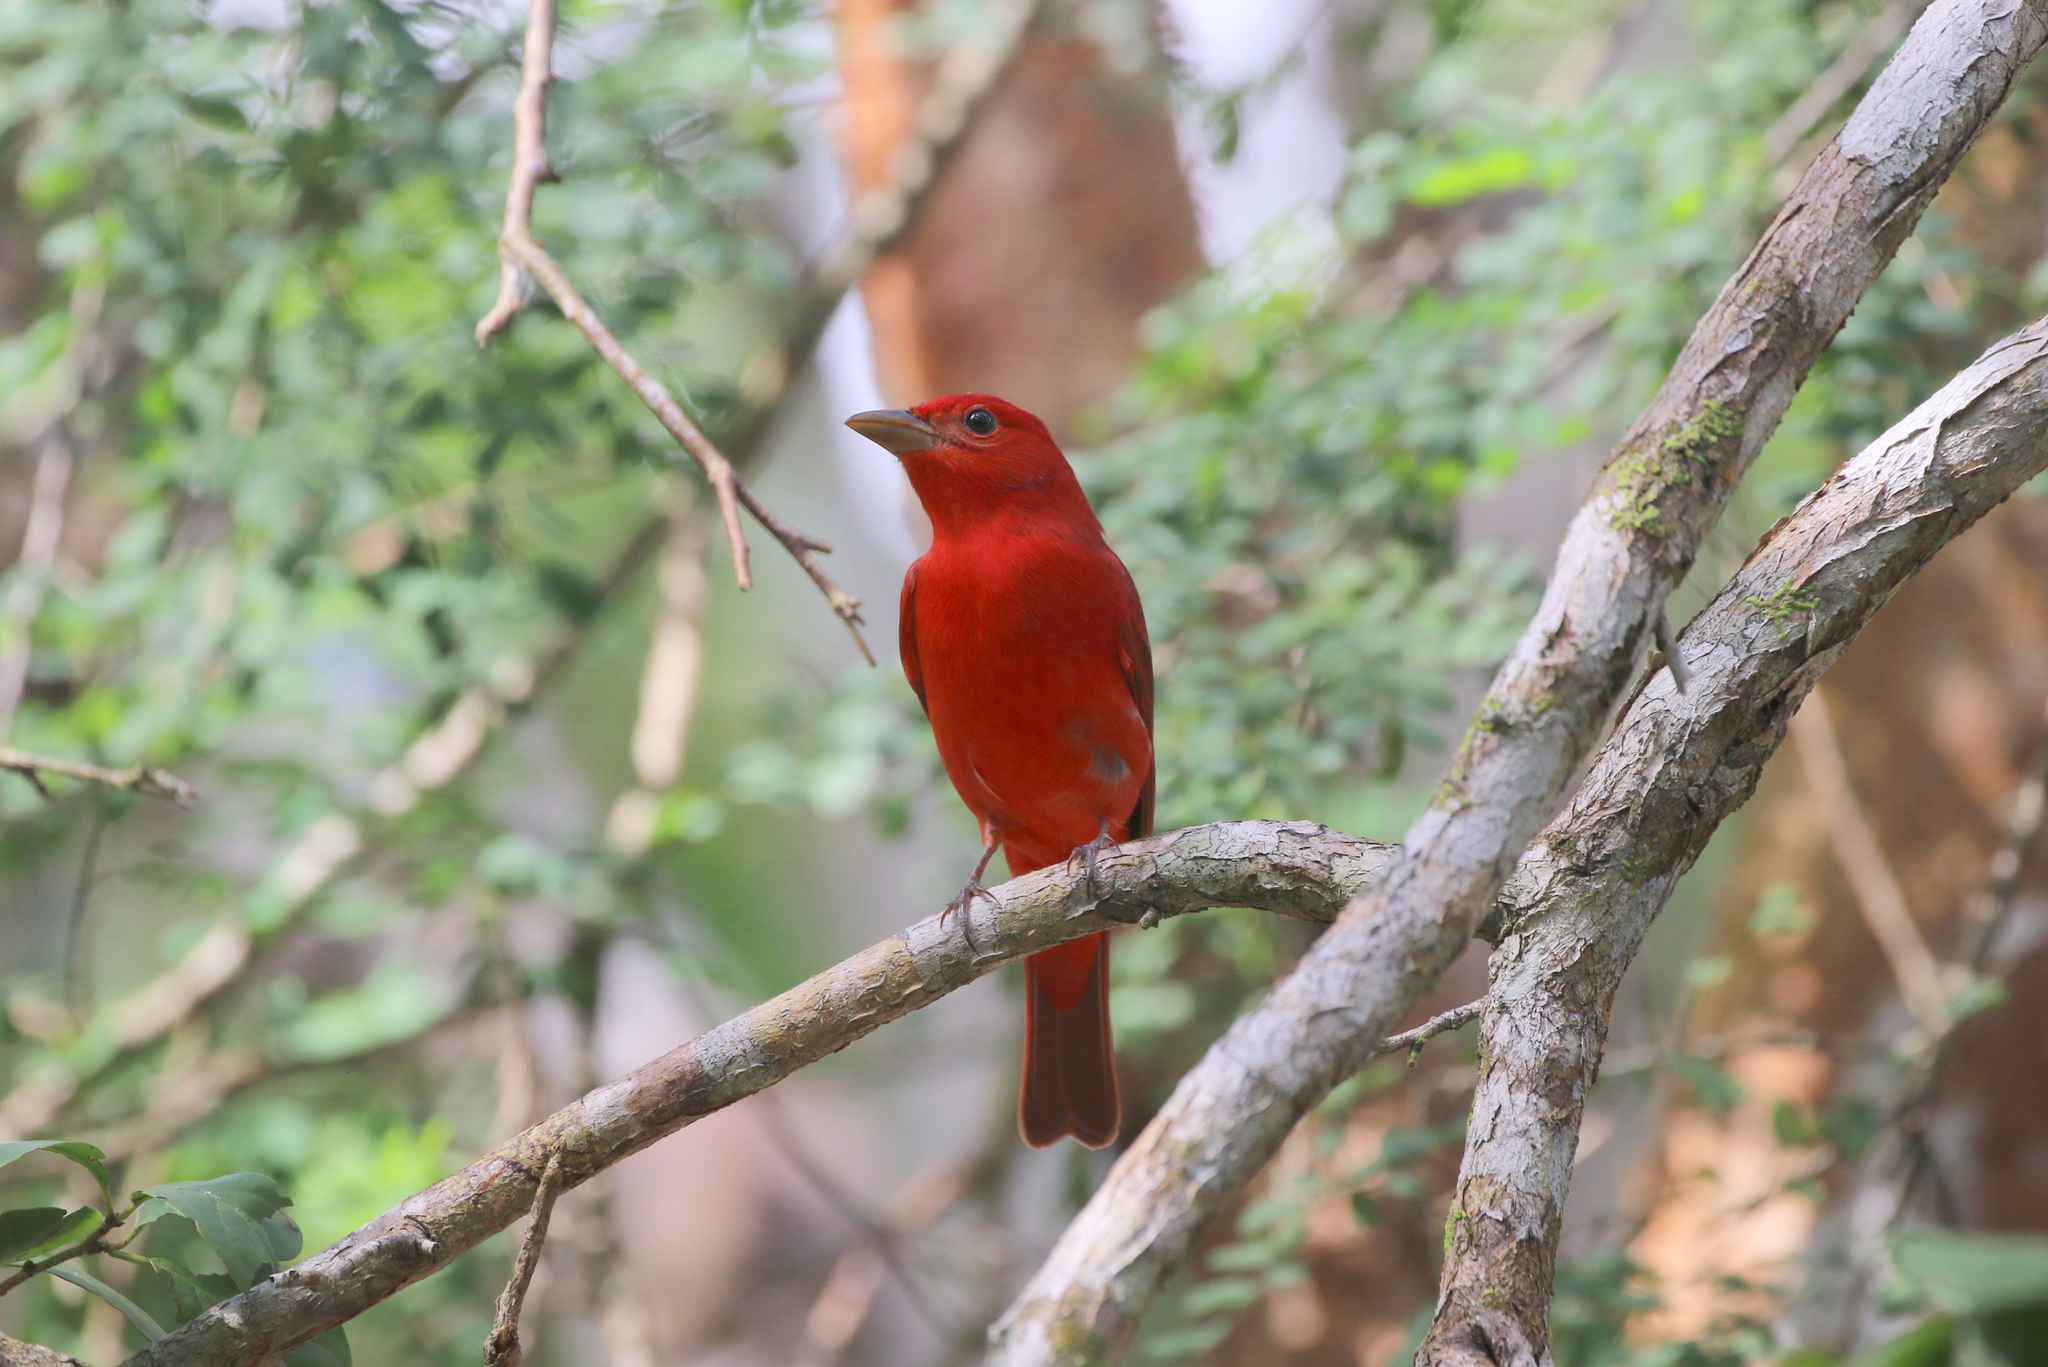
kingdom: Animalia
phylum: Chordata
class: Aves
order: Passeriformes
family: Cardinalidae
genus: Piranga
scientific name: Piranga rubra
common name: Summer tanager
